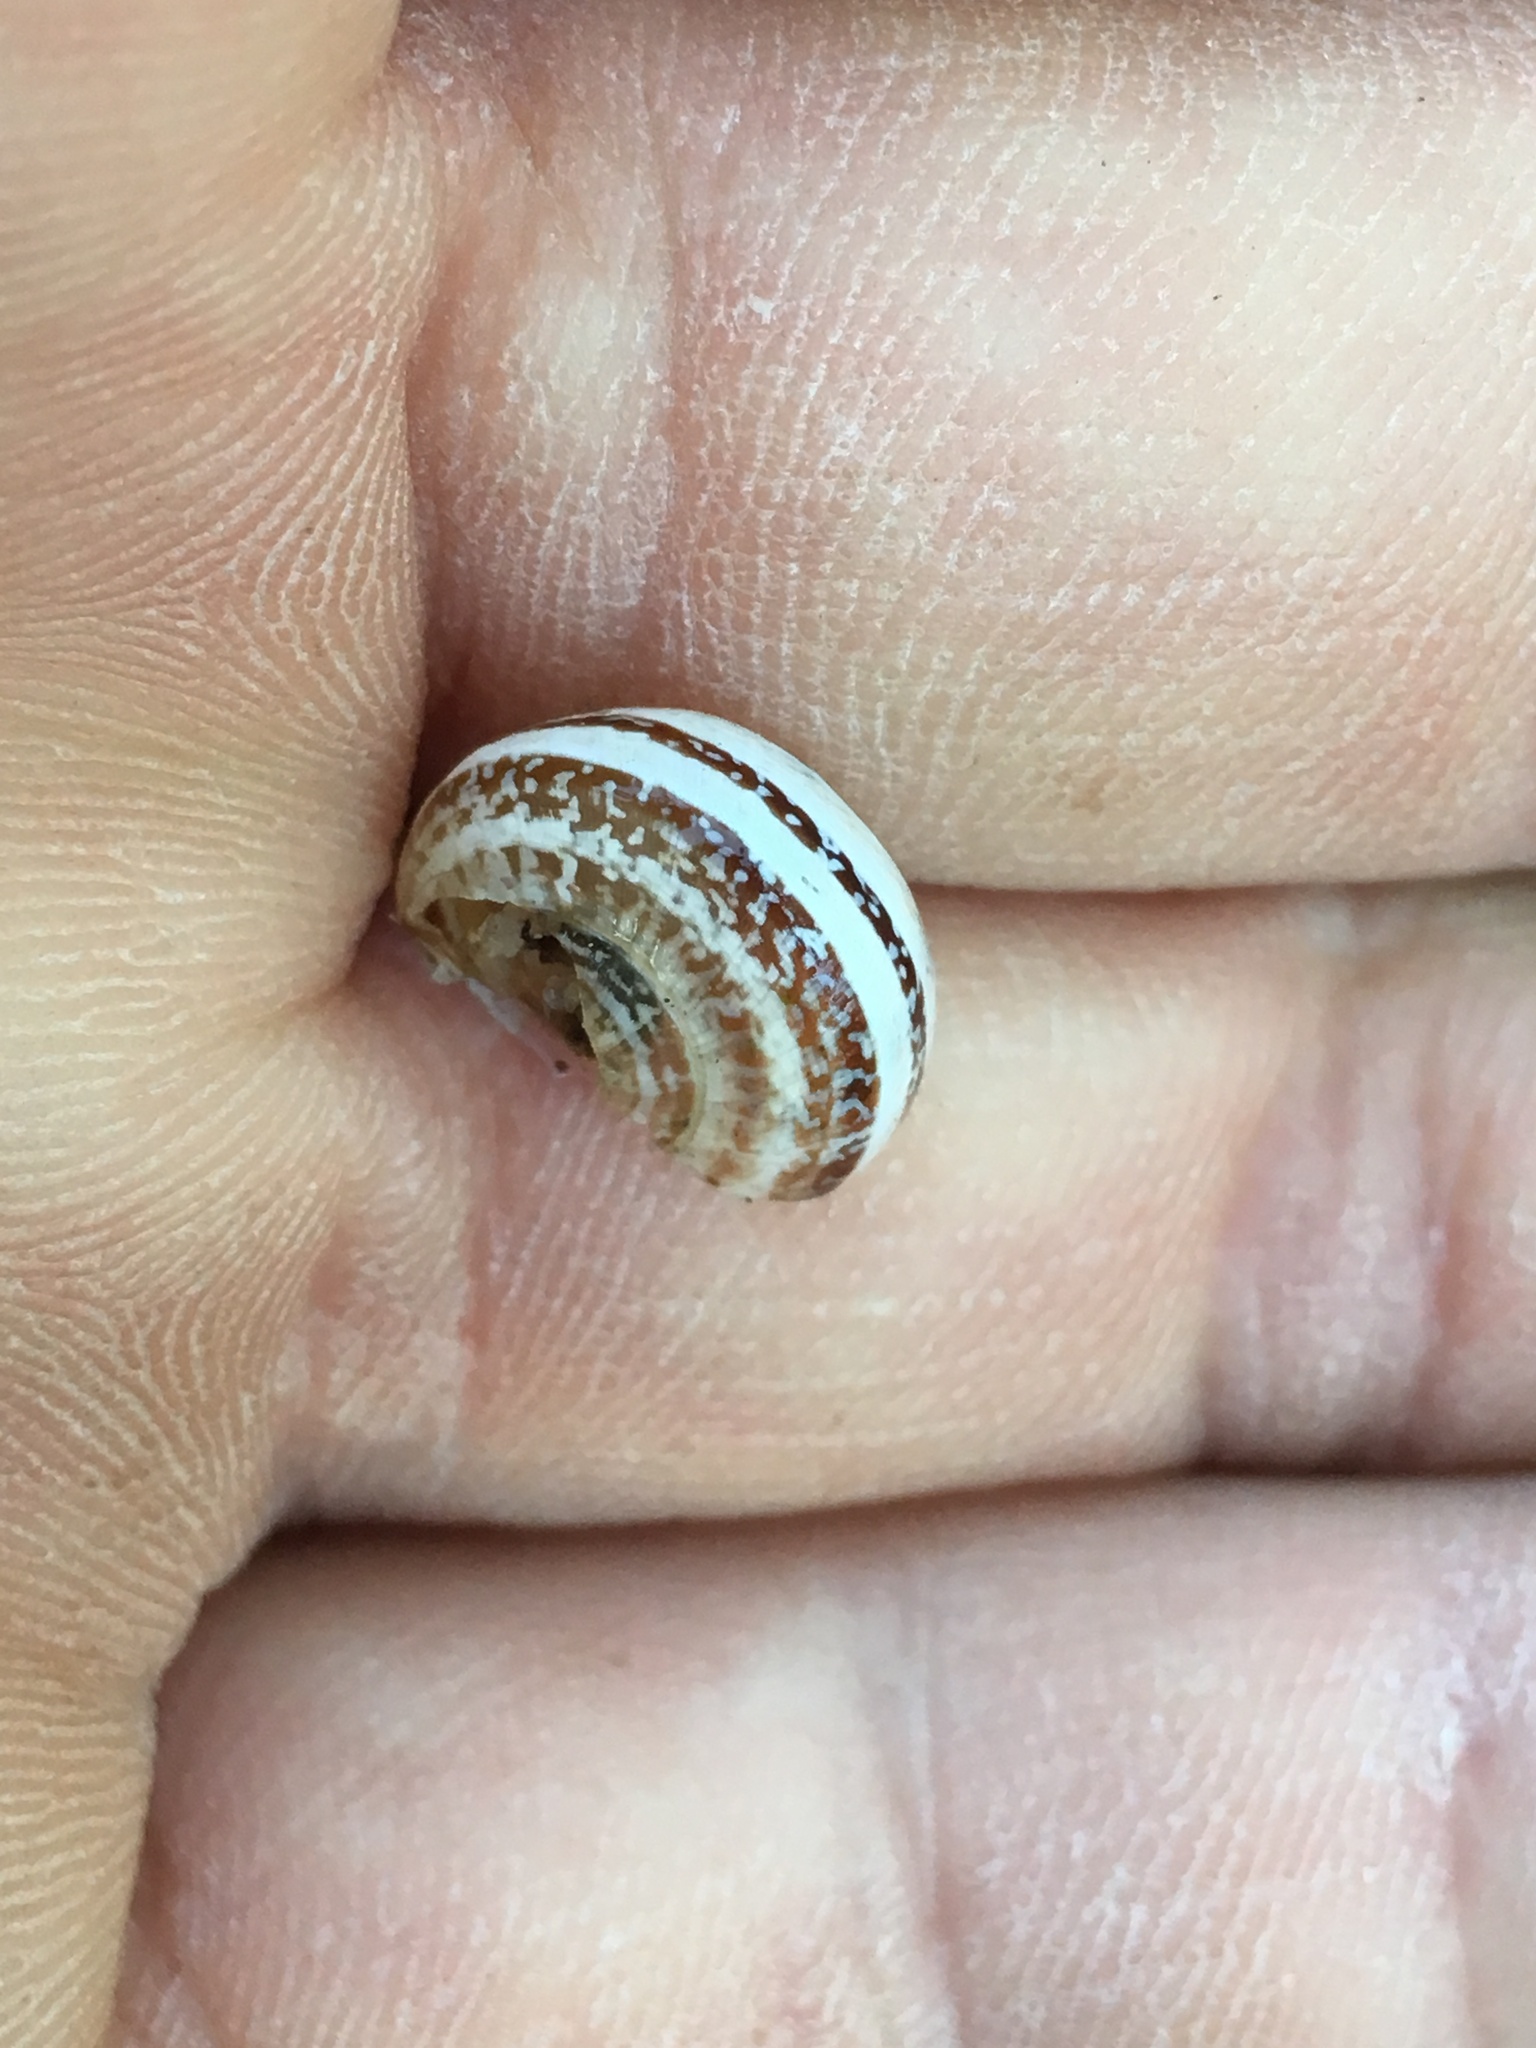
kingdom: Animalia
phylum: Mollusca
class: Gastropoda
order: Stylommatophora
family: Helicidae
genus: Otala
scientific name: Otala lactea
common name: Milk snail
